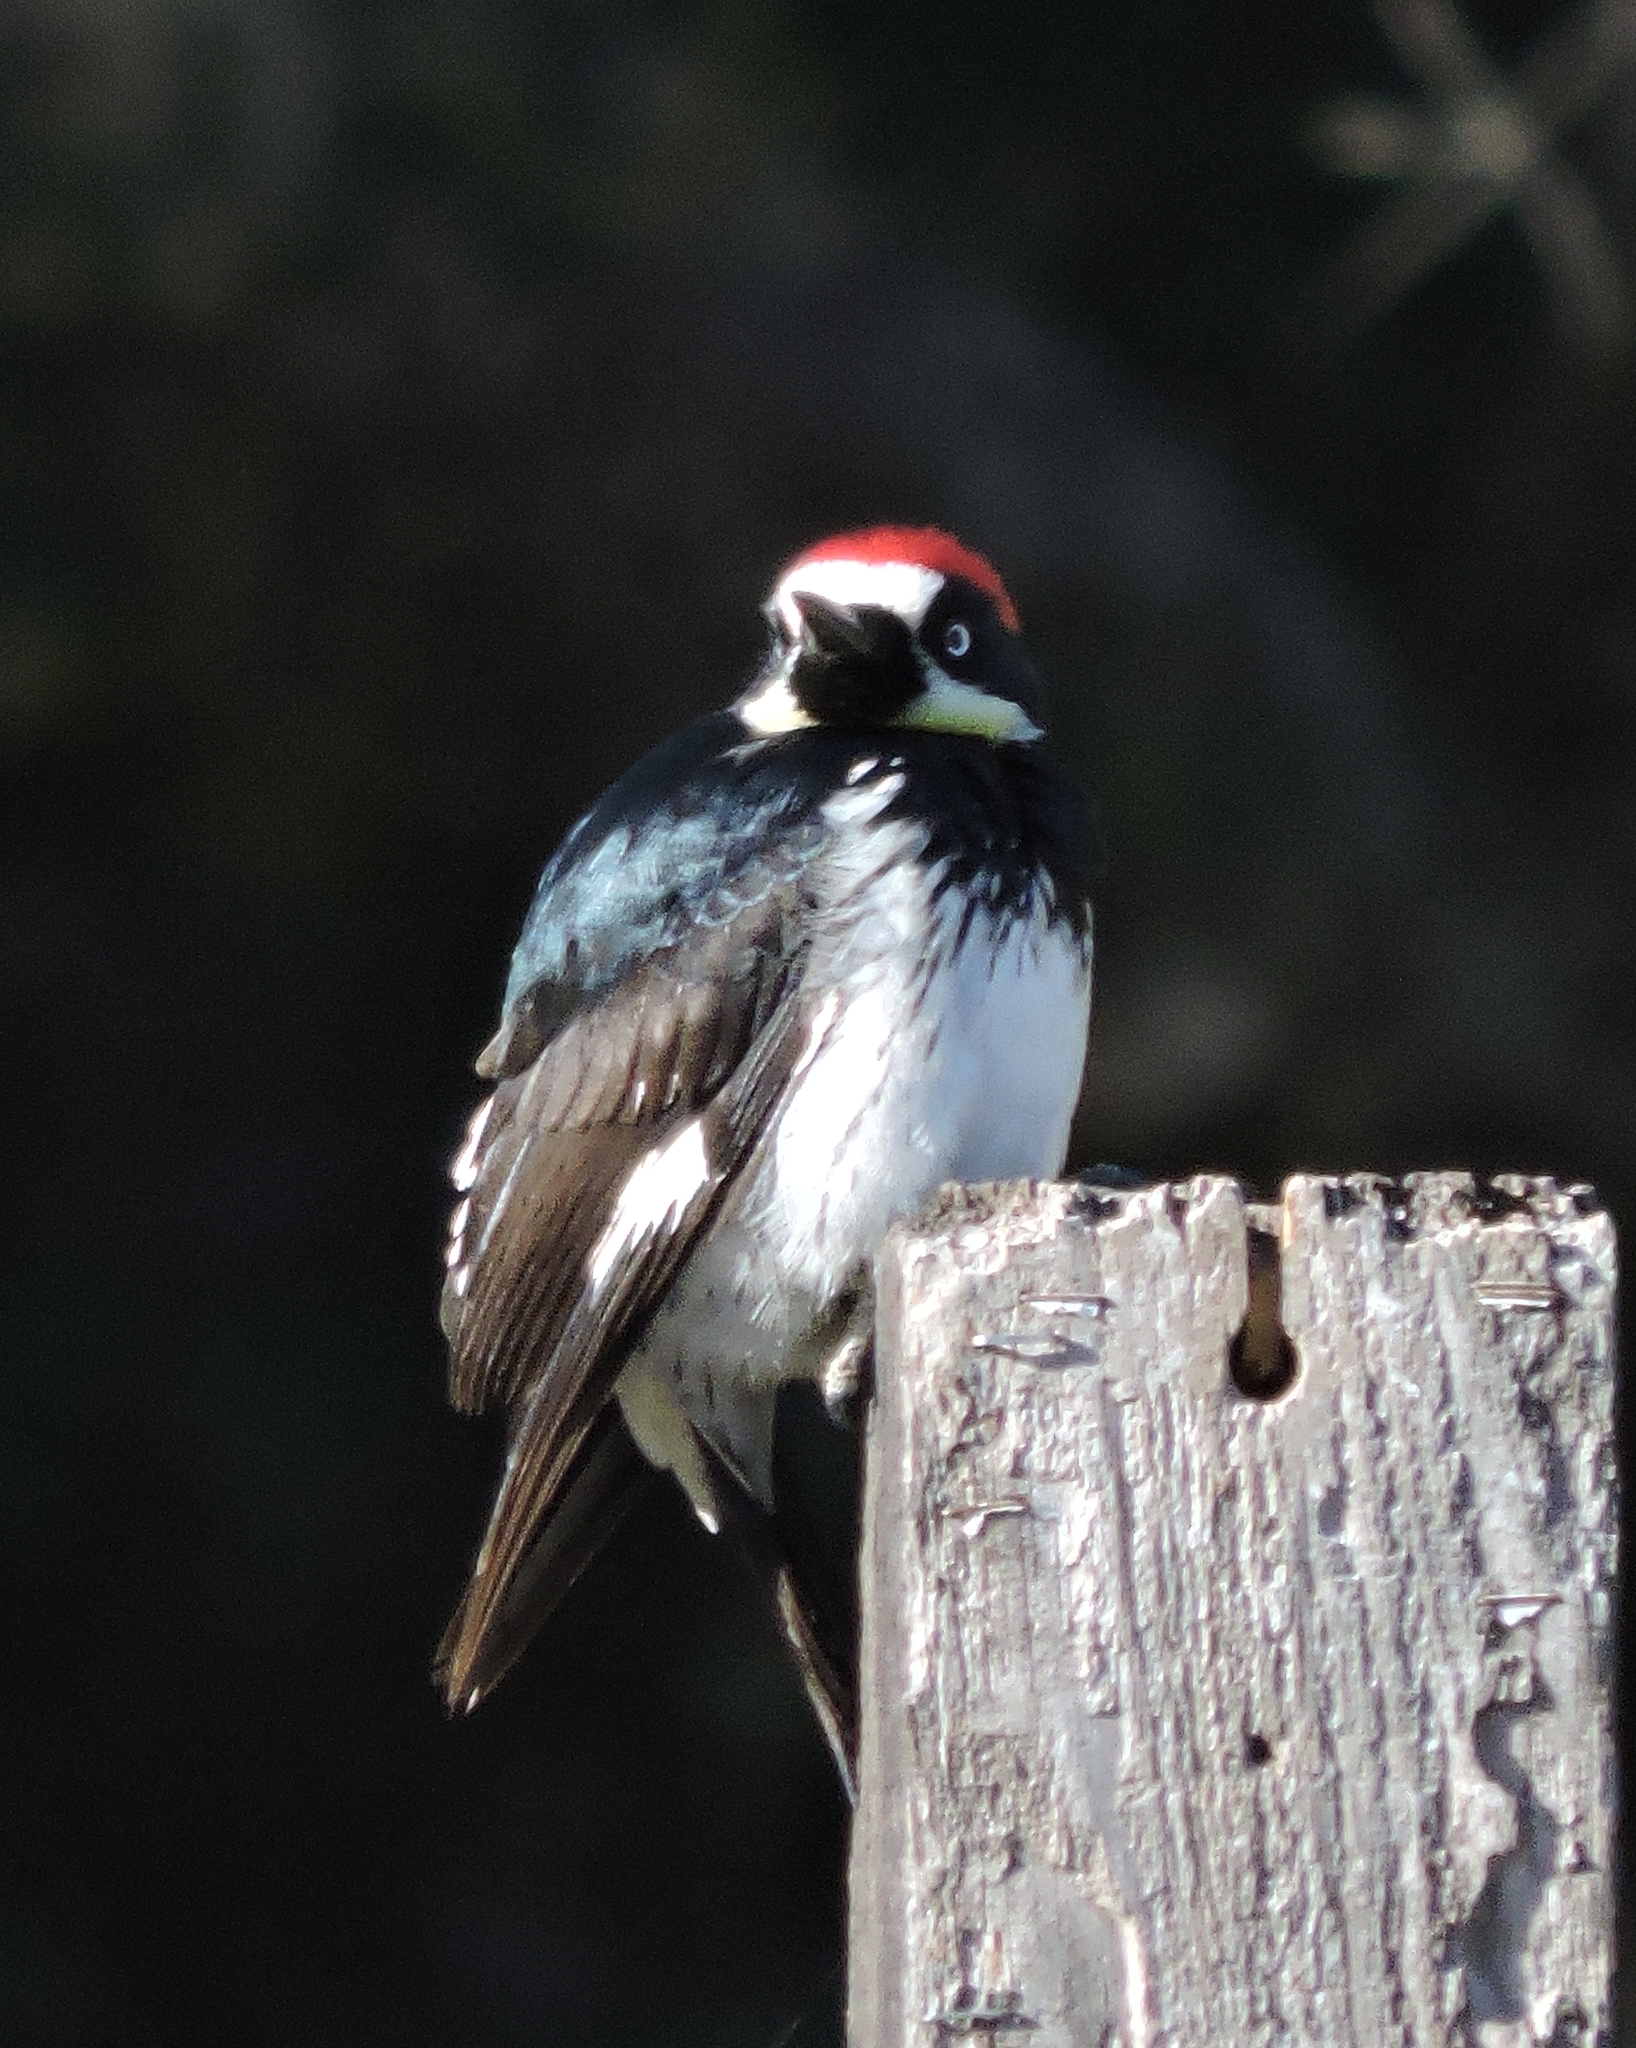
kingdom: Animalia
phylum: Chordata
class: Aves
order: Piciformes
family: Picidae
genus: Melanerpes
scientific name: Melanerpes formicivorus
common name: Acorn woodpecker
